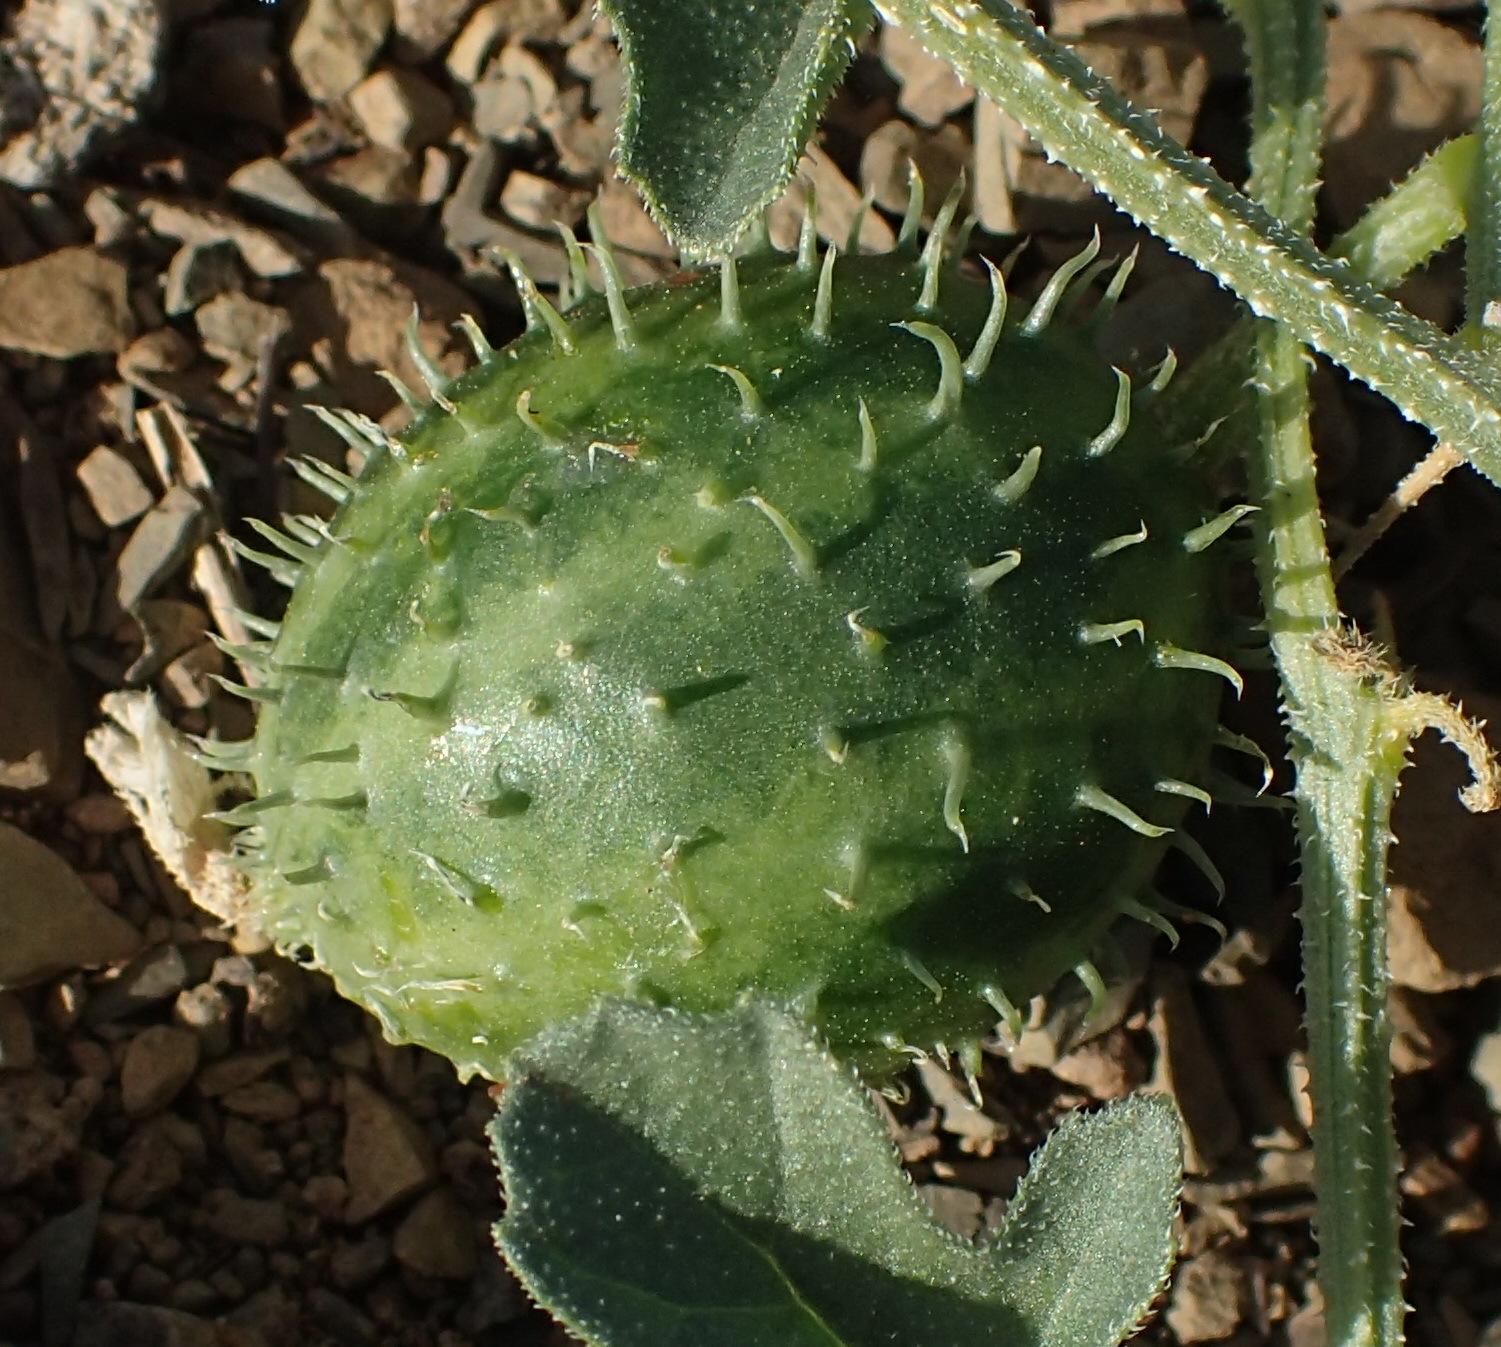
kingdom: Plantae
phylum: Tracheophyta
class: Magnoliopsida
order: Cucurbitales
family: Cucurbitaceae
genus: Cucumis
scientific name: Cucumis myriocarpus
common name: Gooseberry cucumber
